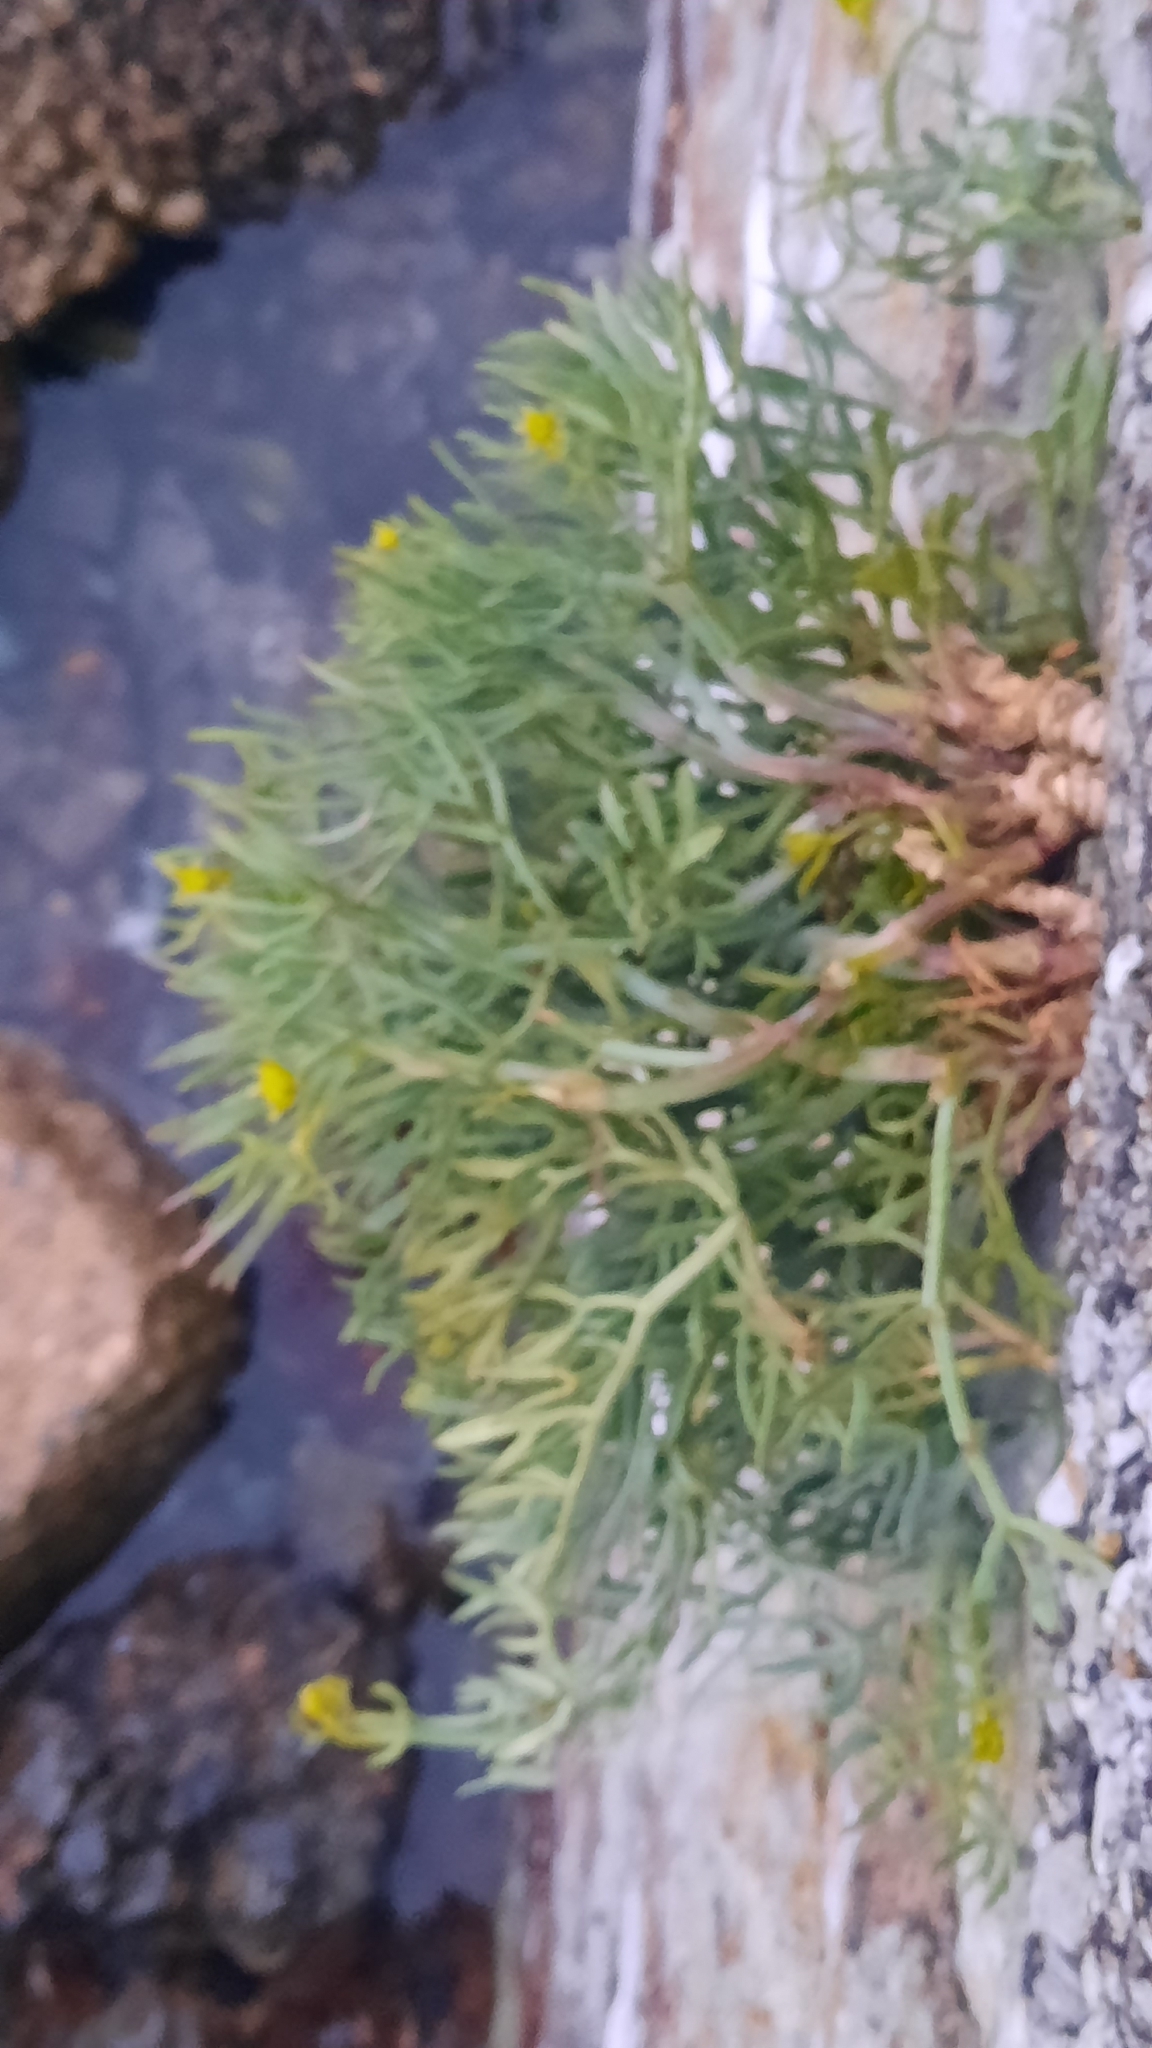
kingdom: Plantae
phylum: Tracheophyta
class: Magnoliopsida
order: Apiales
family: Apiaceae
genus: Crithmum
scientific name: Crithmum maritimum
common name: Rock samphire
